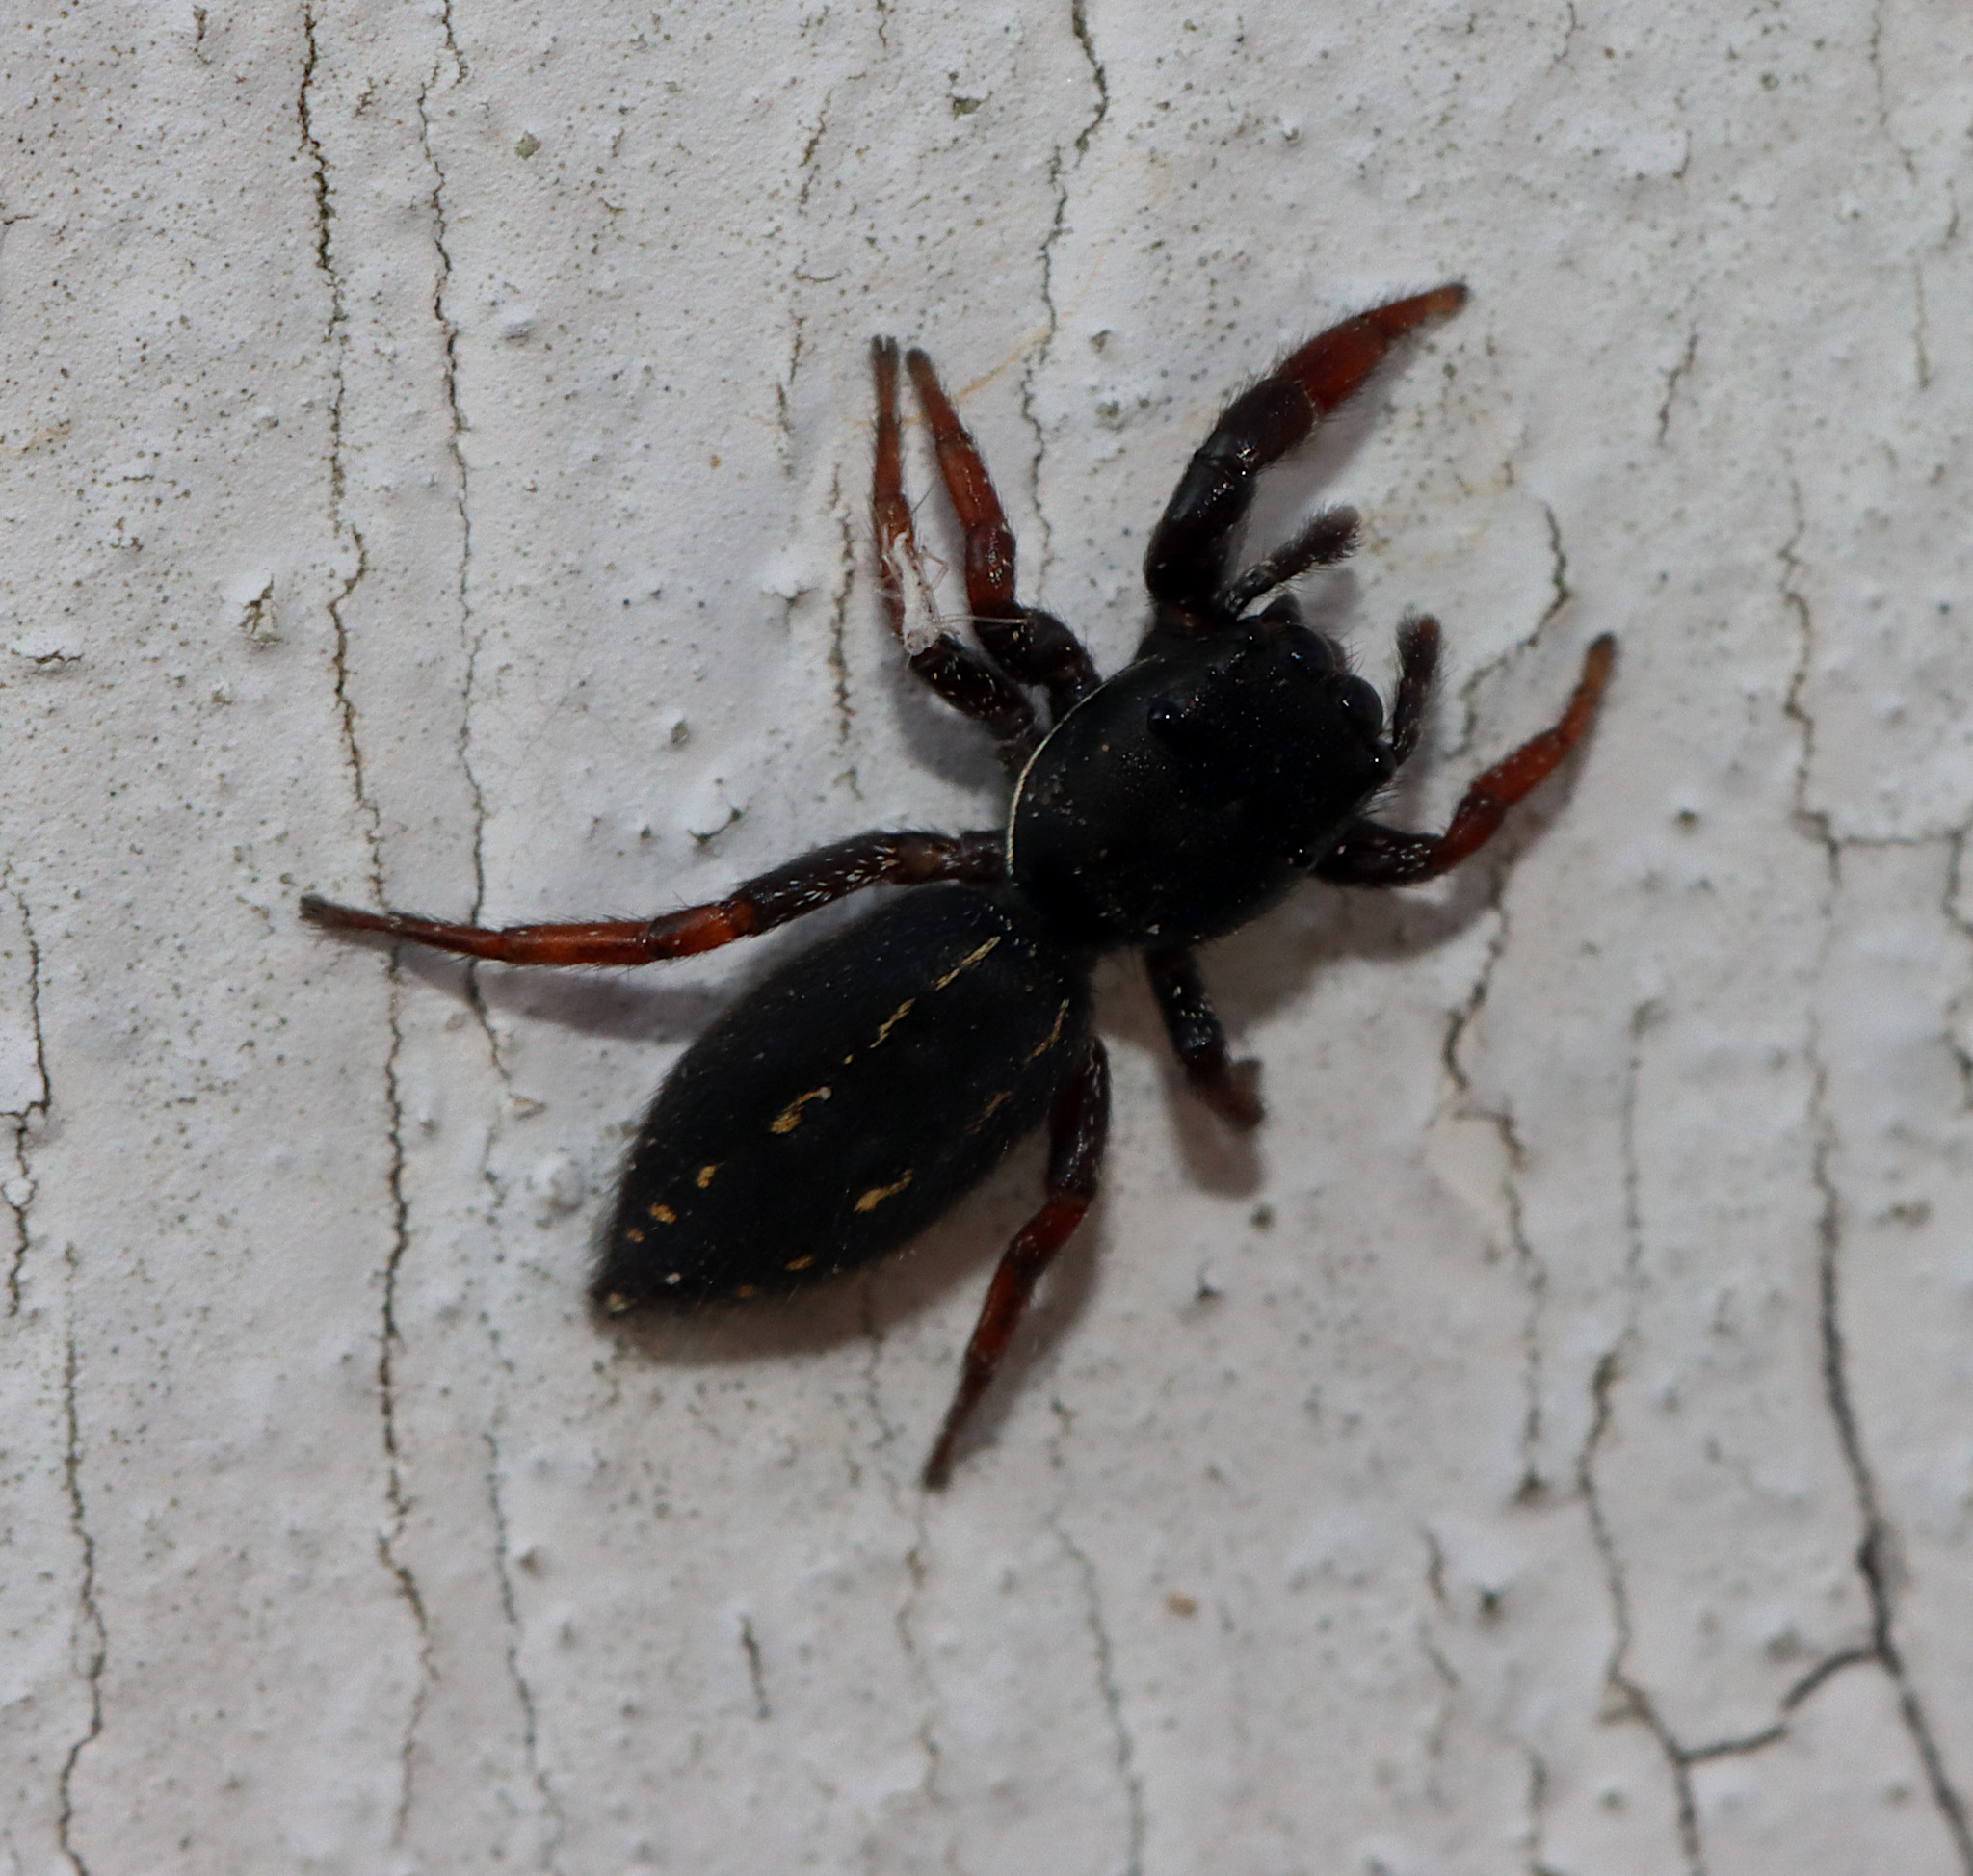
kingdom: Animalia
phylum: Arthropoda
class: Arachnida
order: Araneae
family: Salticidae
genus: Metacyrba
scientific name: Metacyrba taeniola
